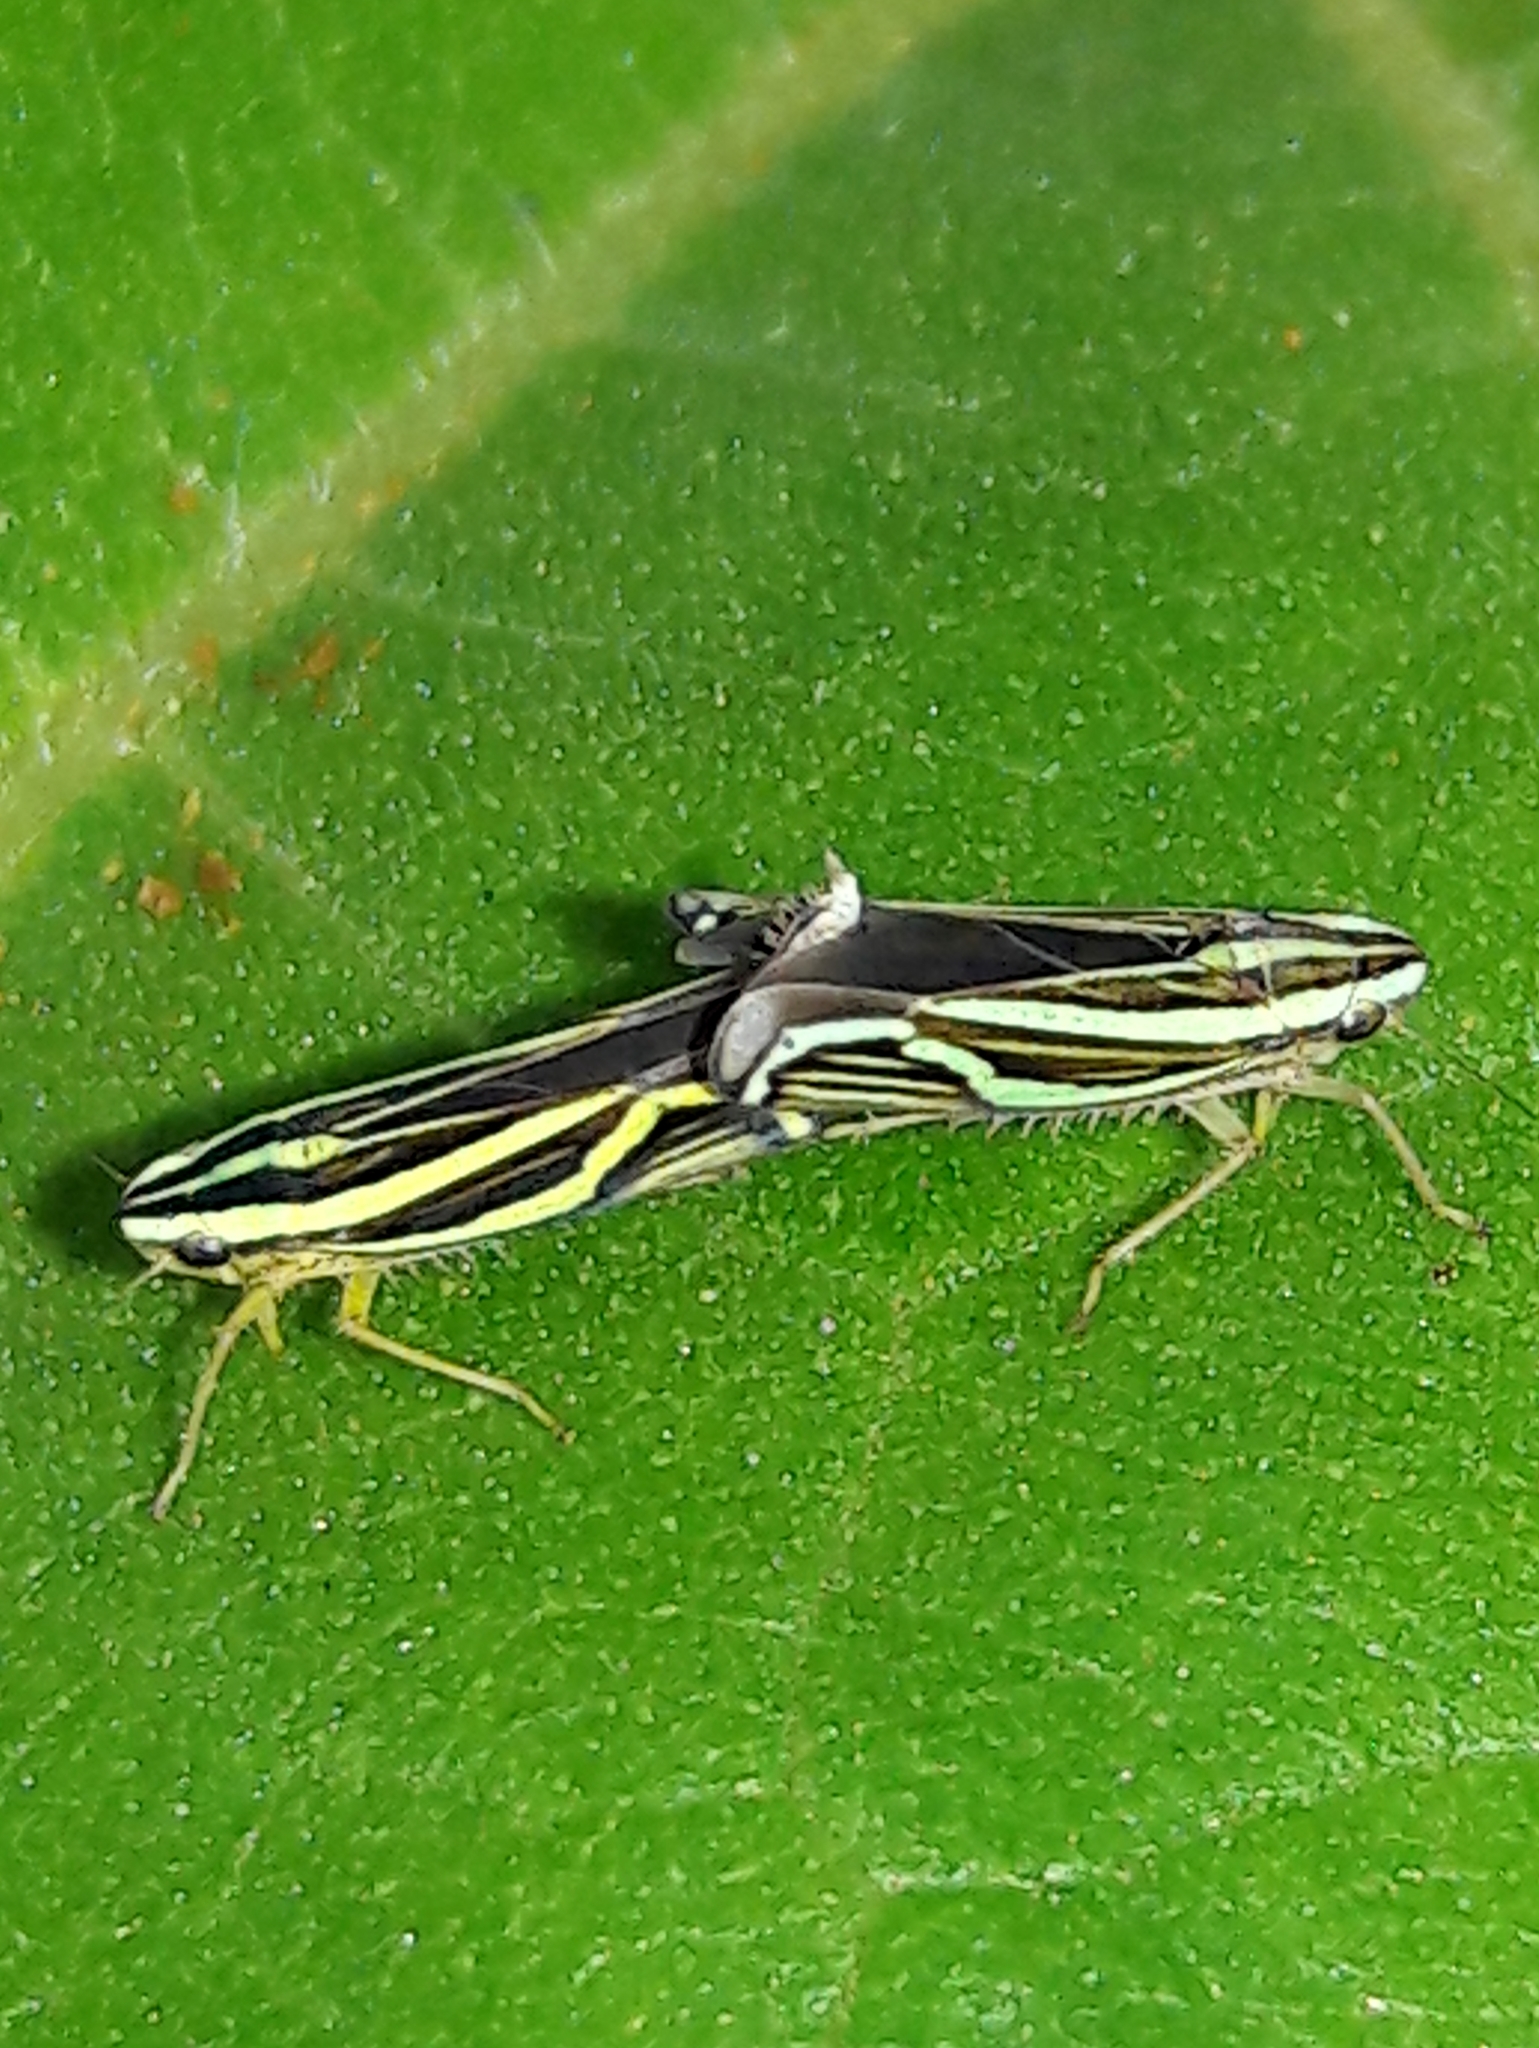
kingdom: Animalia
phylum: Arthropoda
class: Insecta
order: Hemiptera
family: Cicadellidae
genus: Sibovia
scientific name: Sibovia sagata
